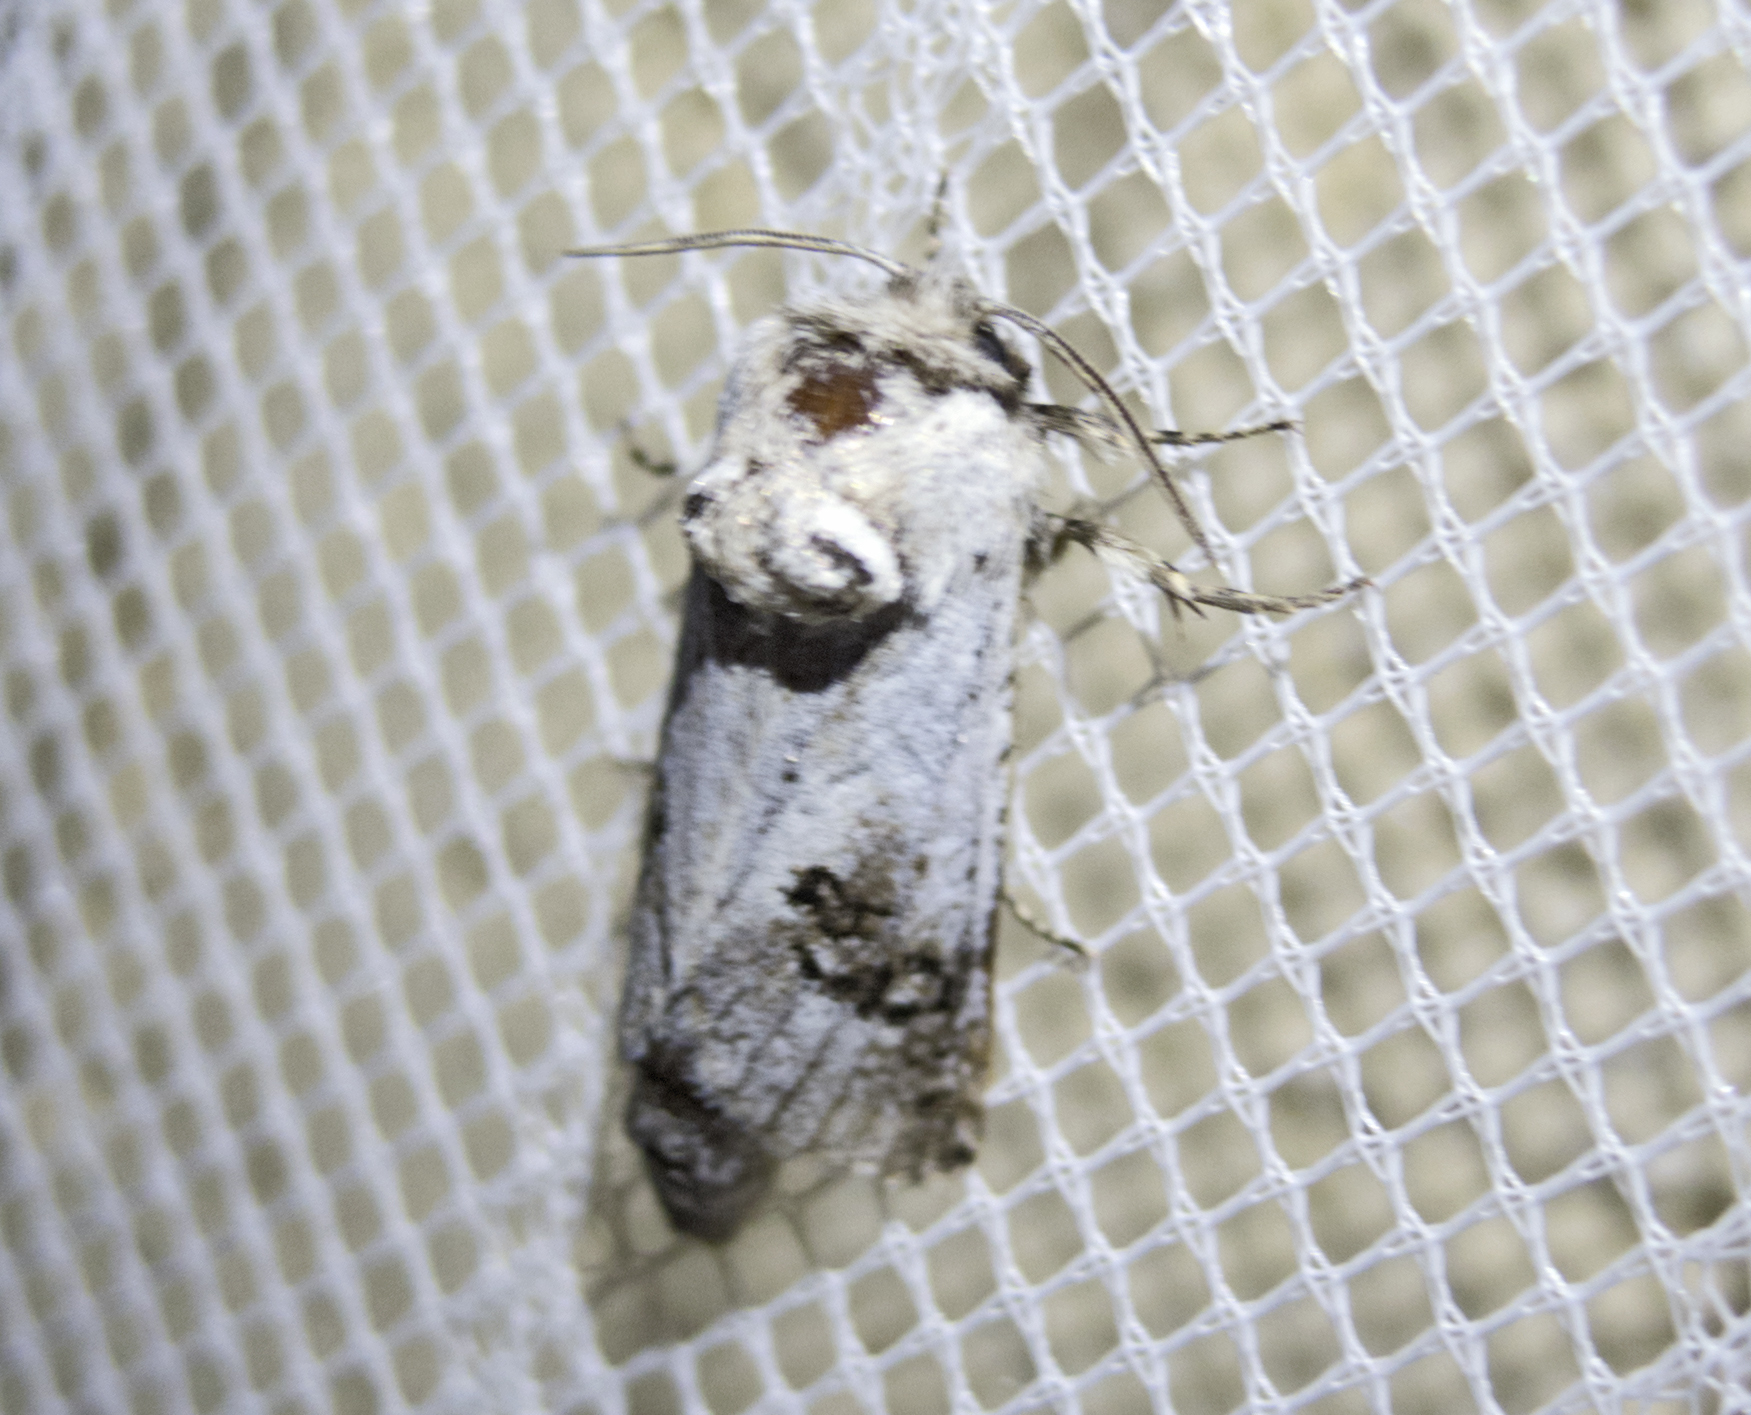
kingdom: Animalia
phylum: Arthropoda
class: Insecta
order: Lepidoptera
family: Cossidae
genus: Parahypopta
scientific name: Parahypopta caestrum
